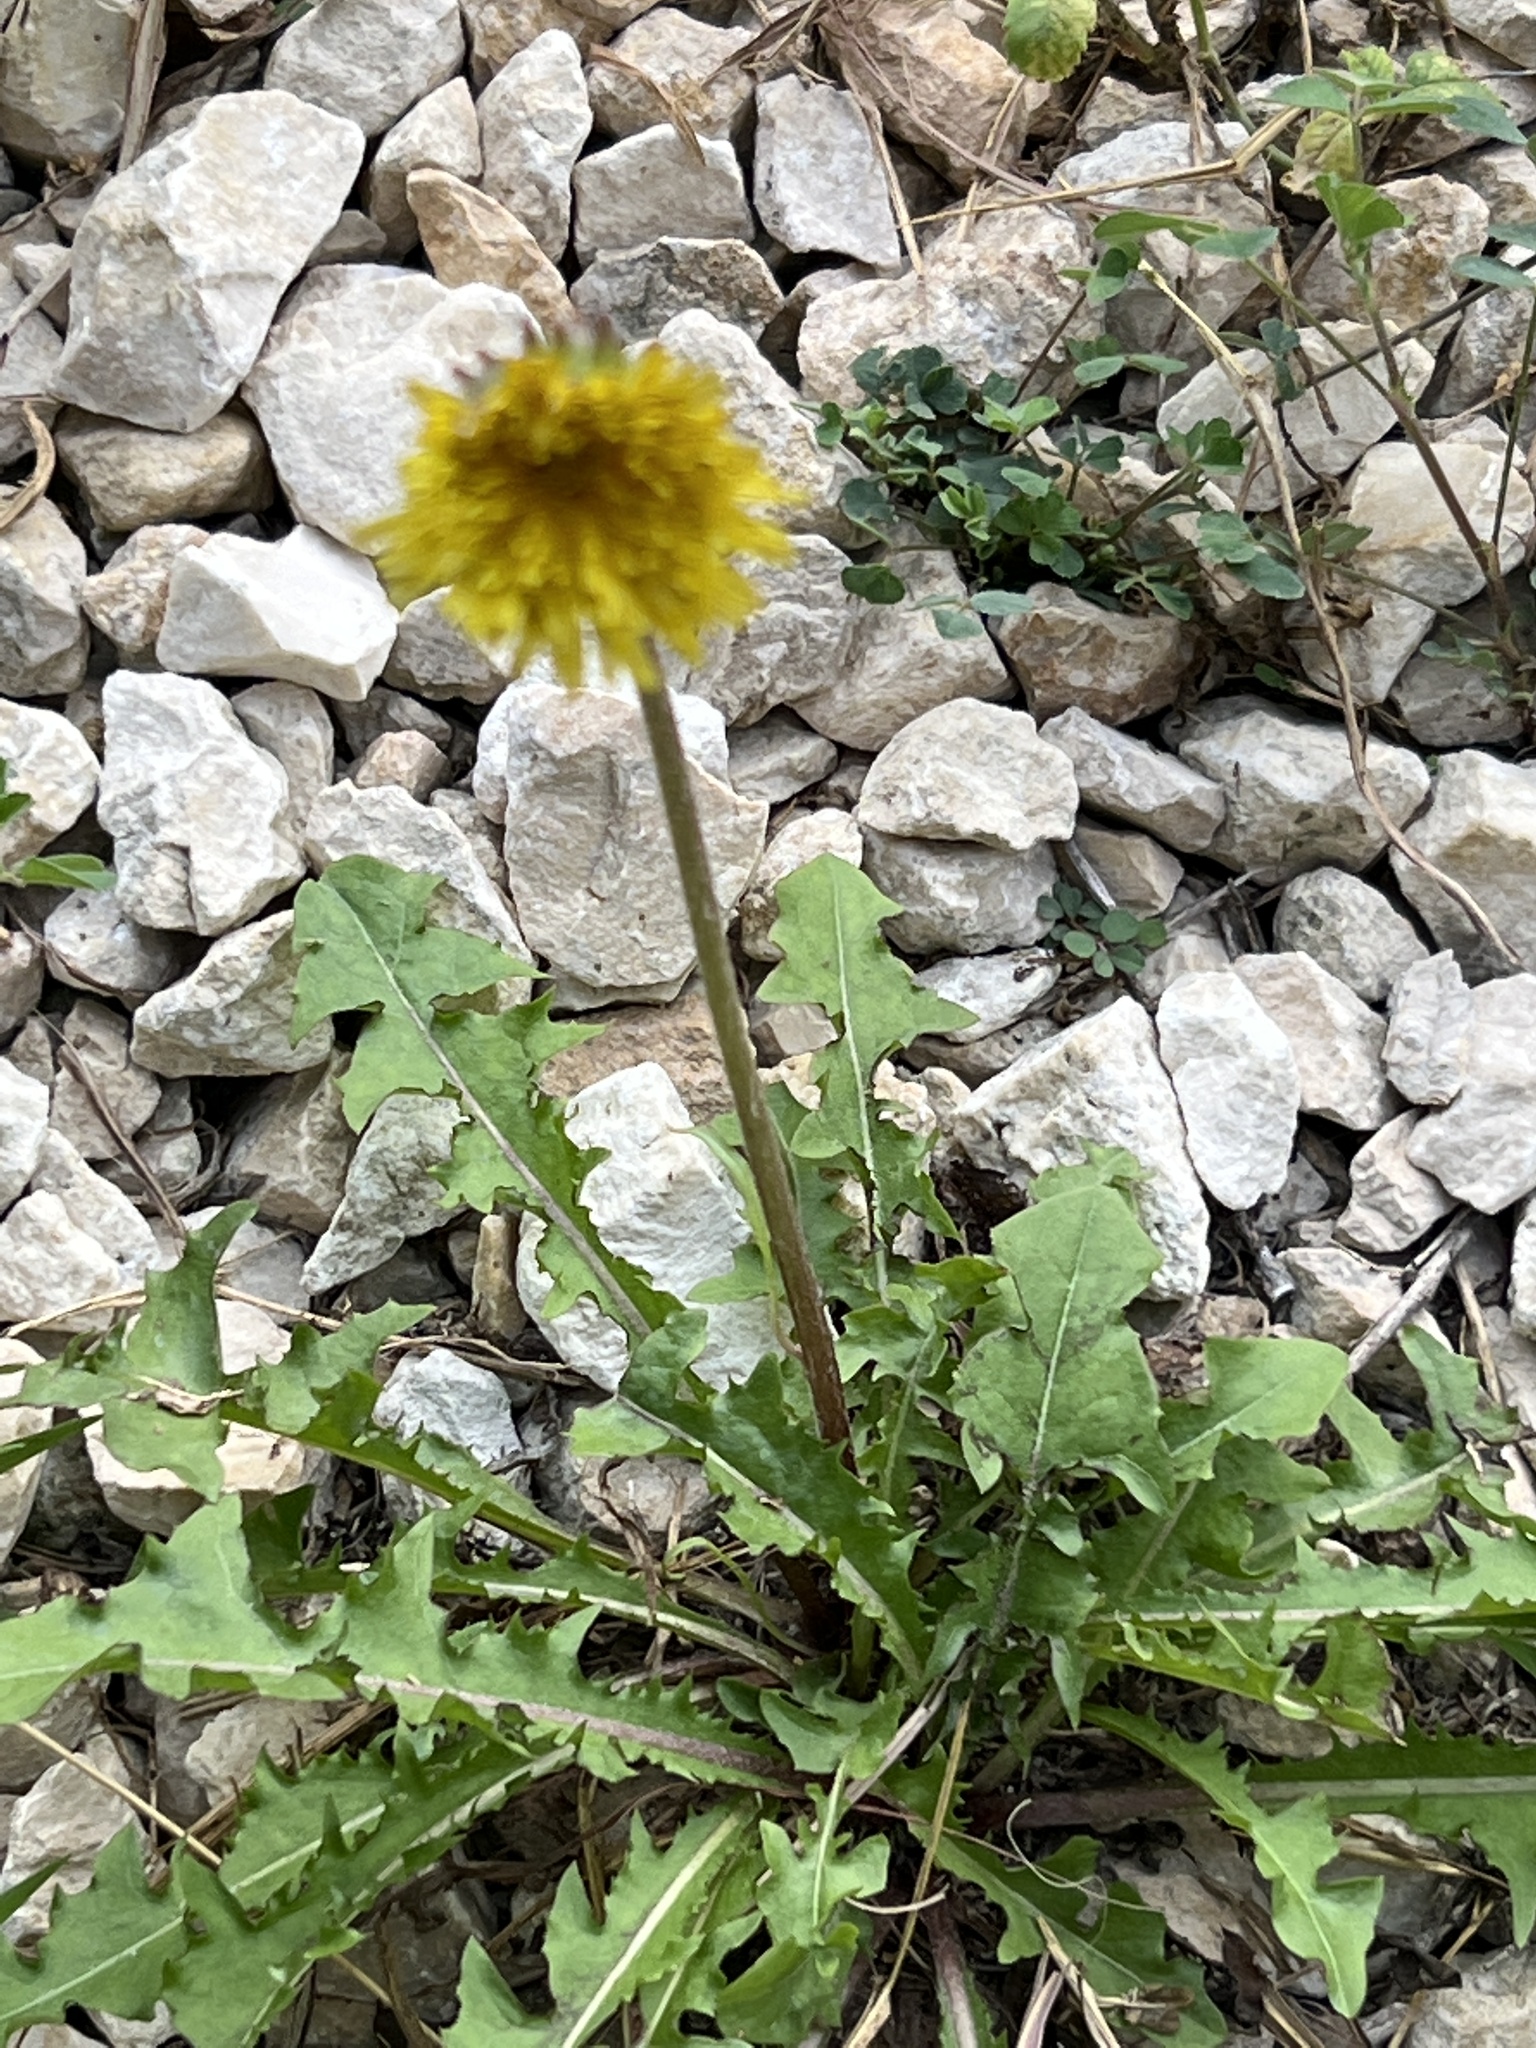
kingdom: Plantae
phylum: Tracheophyta
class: Magnoliopsida
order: Asterales
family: Asteraceae
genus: Taraxacum
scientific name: Taraxacum officinale
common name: Common dandelion
